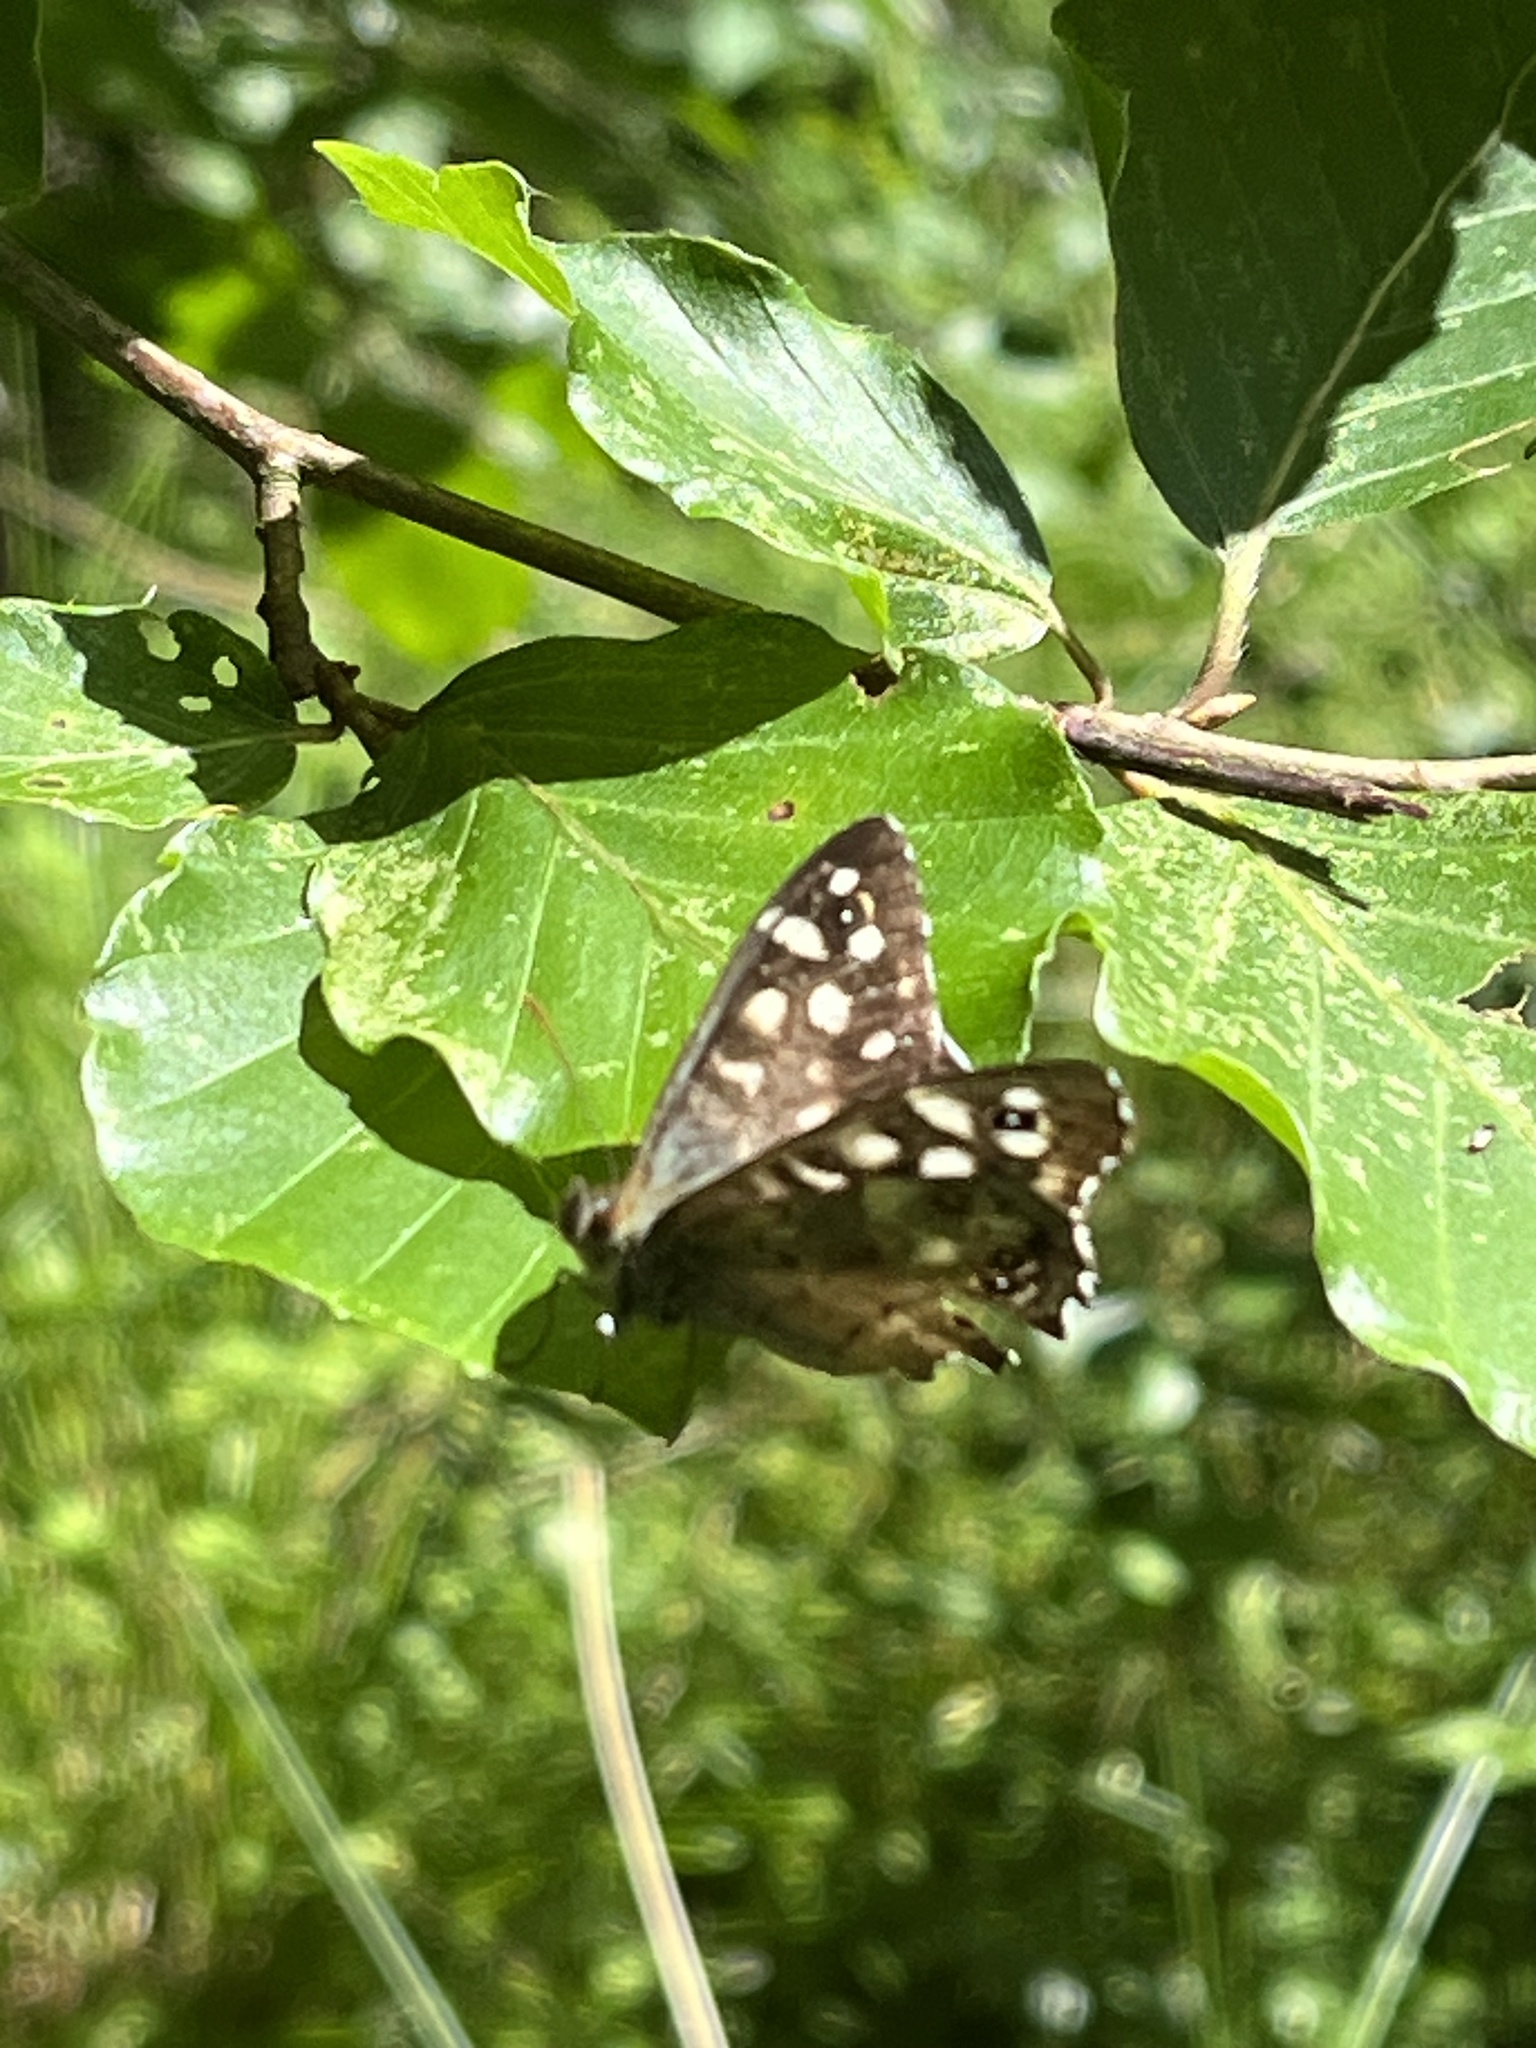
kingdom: Animalia
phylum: Arthropoda
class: Insecta
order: Lepidoptera
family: Nymphalidae
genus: Pararge
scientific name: Pararge aegeria
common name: Speckled wood
